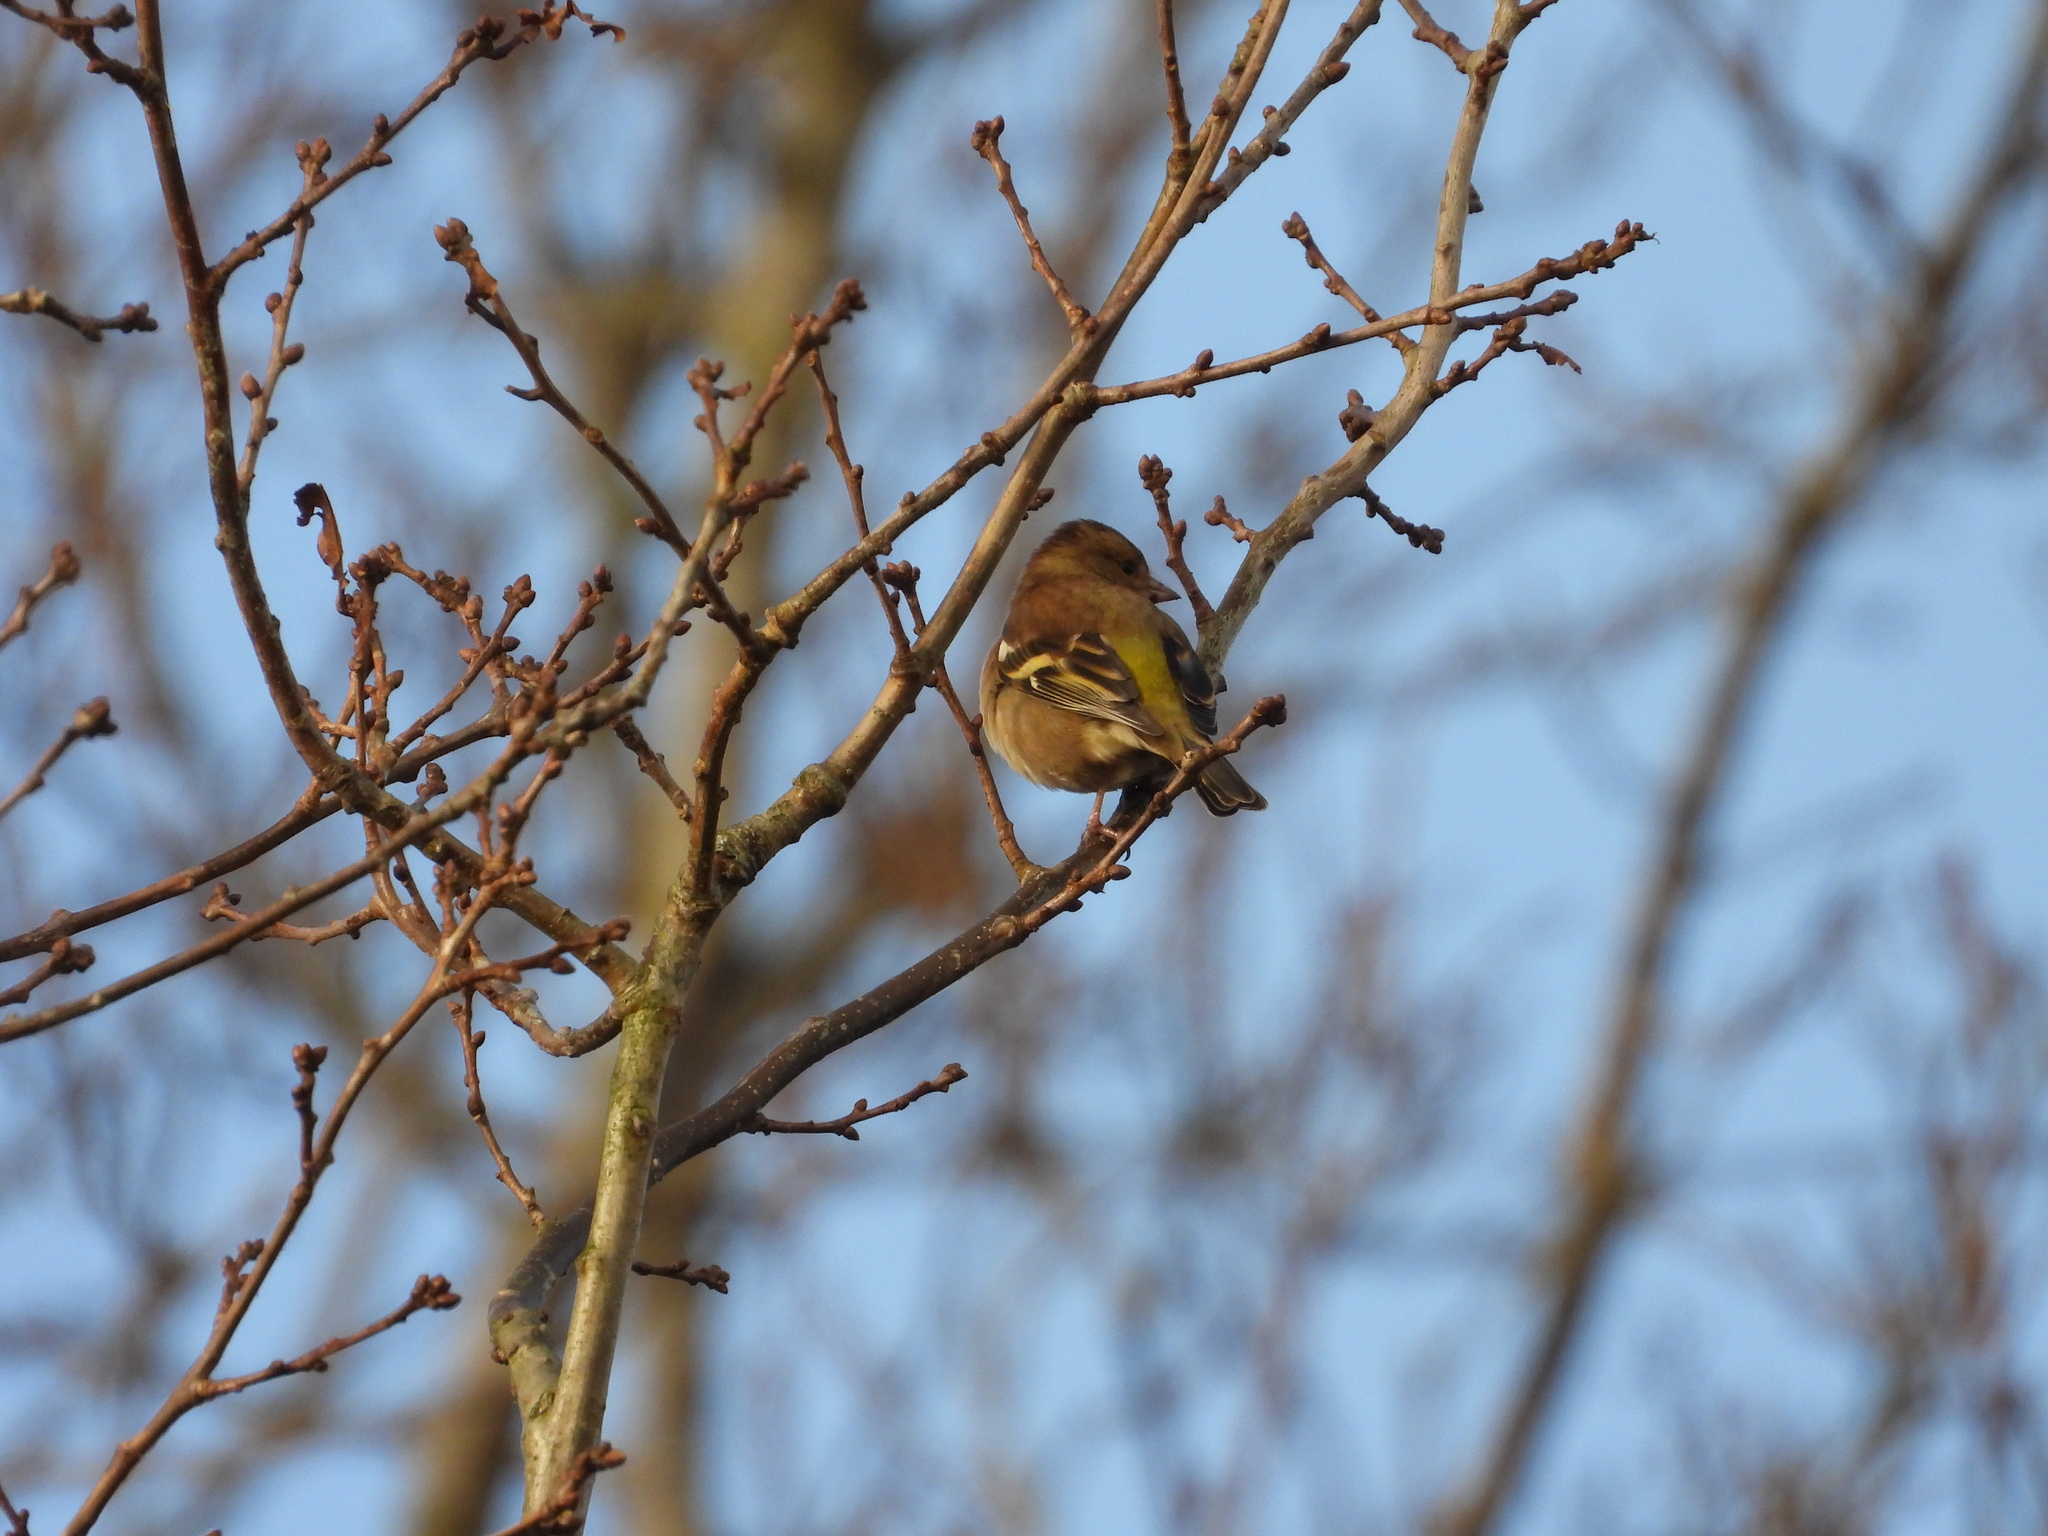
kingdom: Animalia
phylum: Chordata
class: Aves
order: Passeriformes
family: Fringillidae
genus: Fringilla
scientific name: Fringilla coelebs
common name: Common chaffinch
